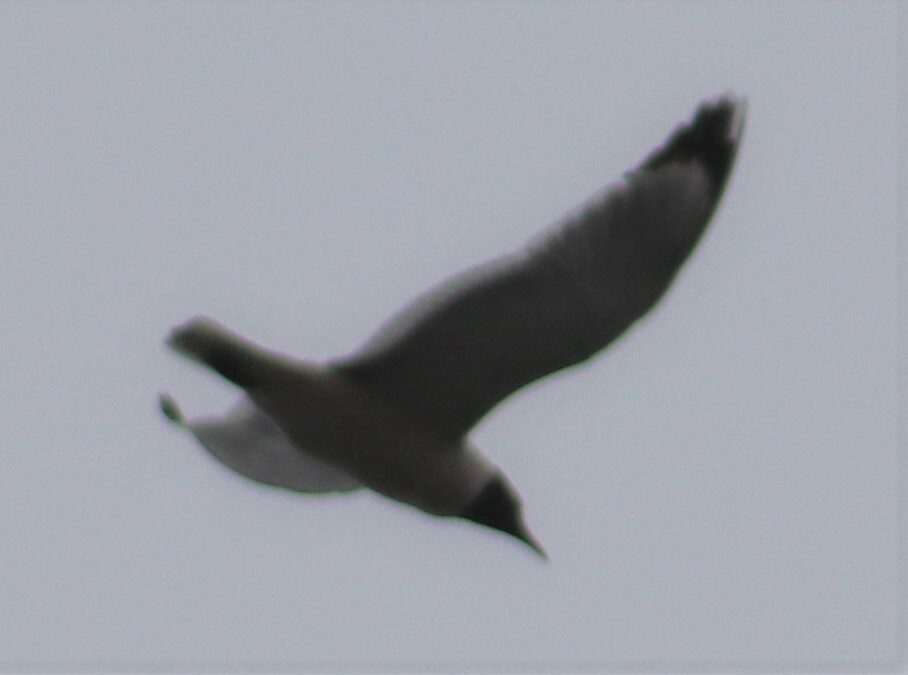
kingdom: Animalia
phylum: Chordata
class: Aves
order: Charadriiformes
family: Laridae
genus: Leucophaeus
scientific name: Leucophaeus pipixcan
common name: Franklin's gull
